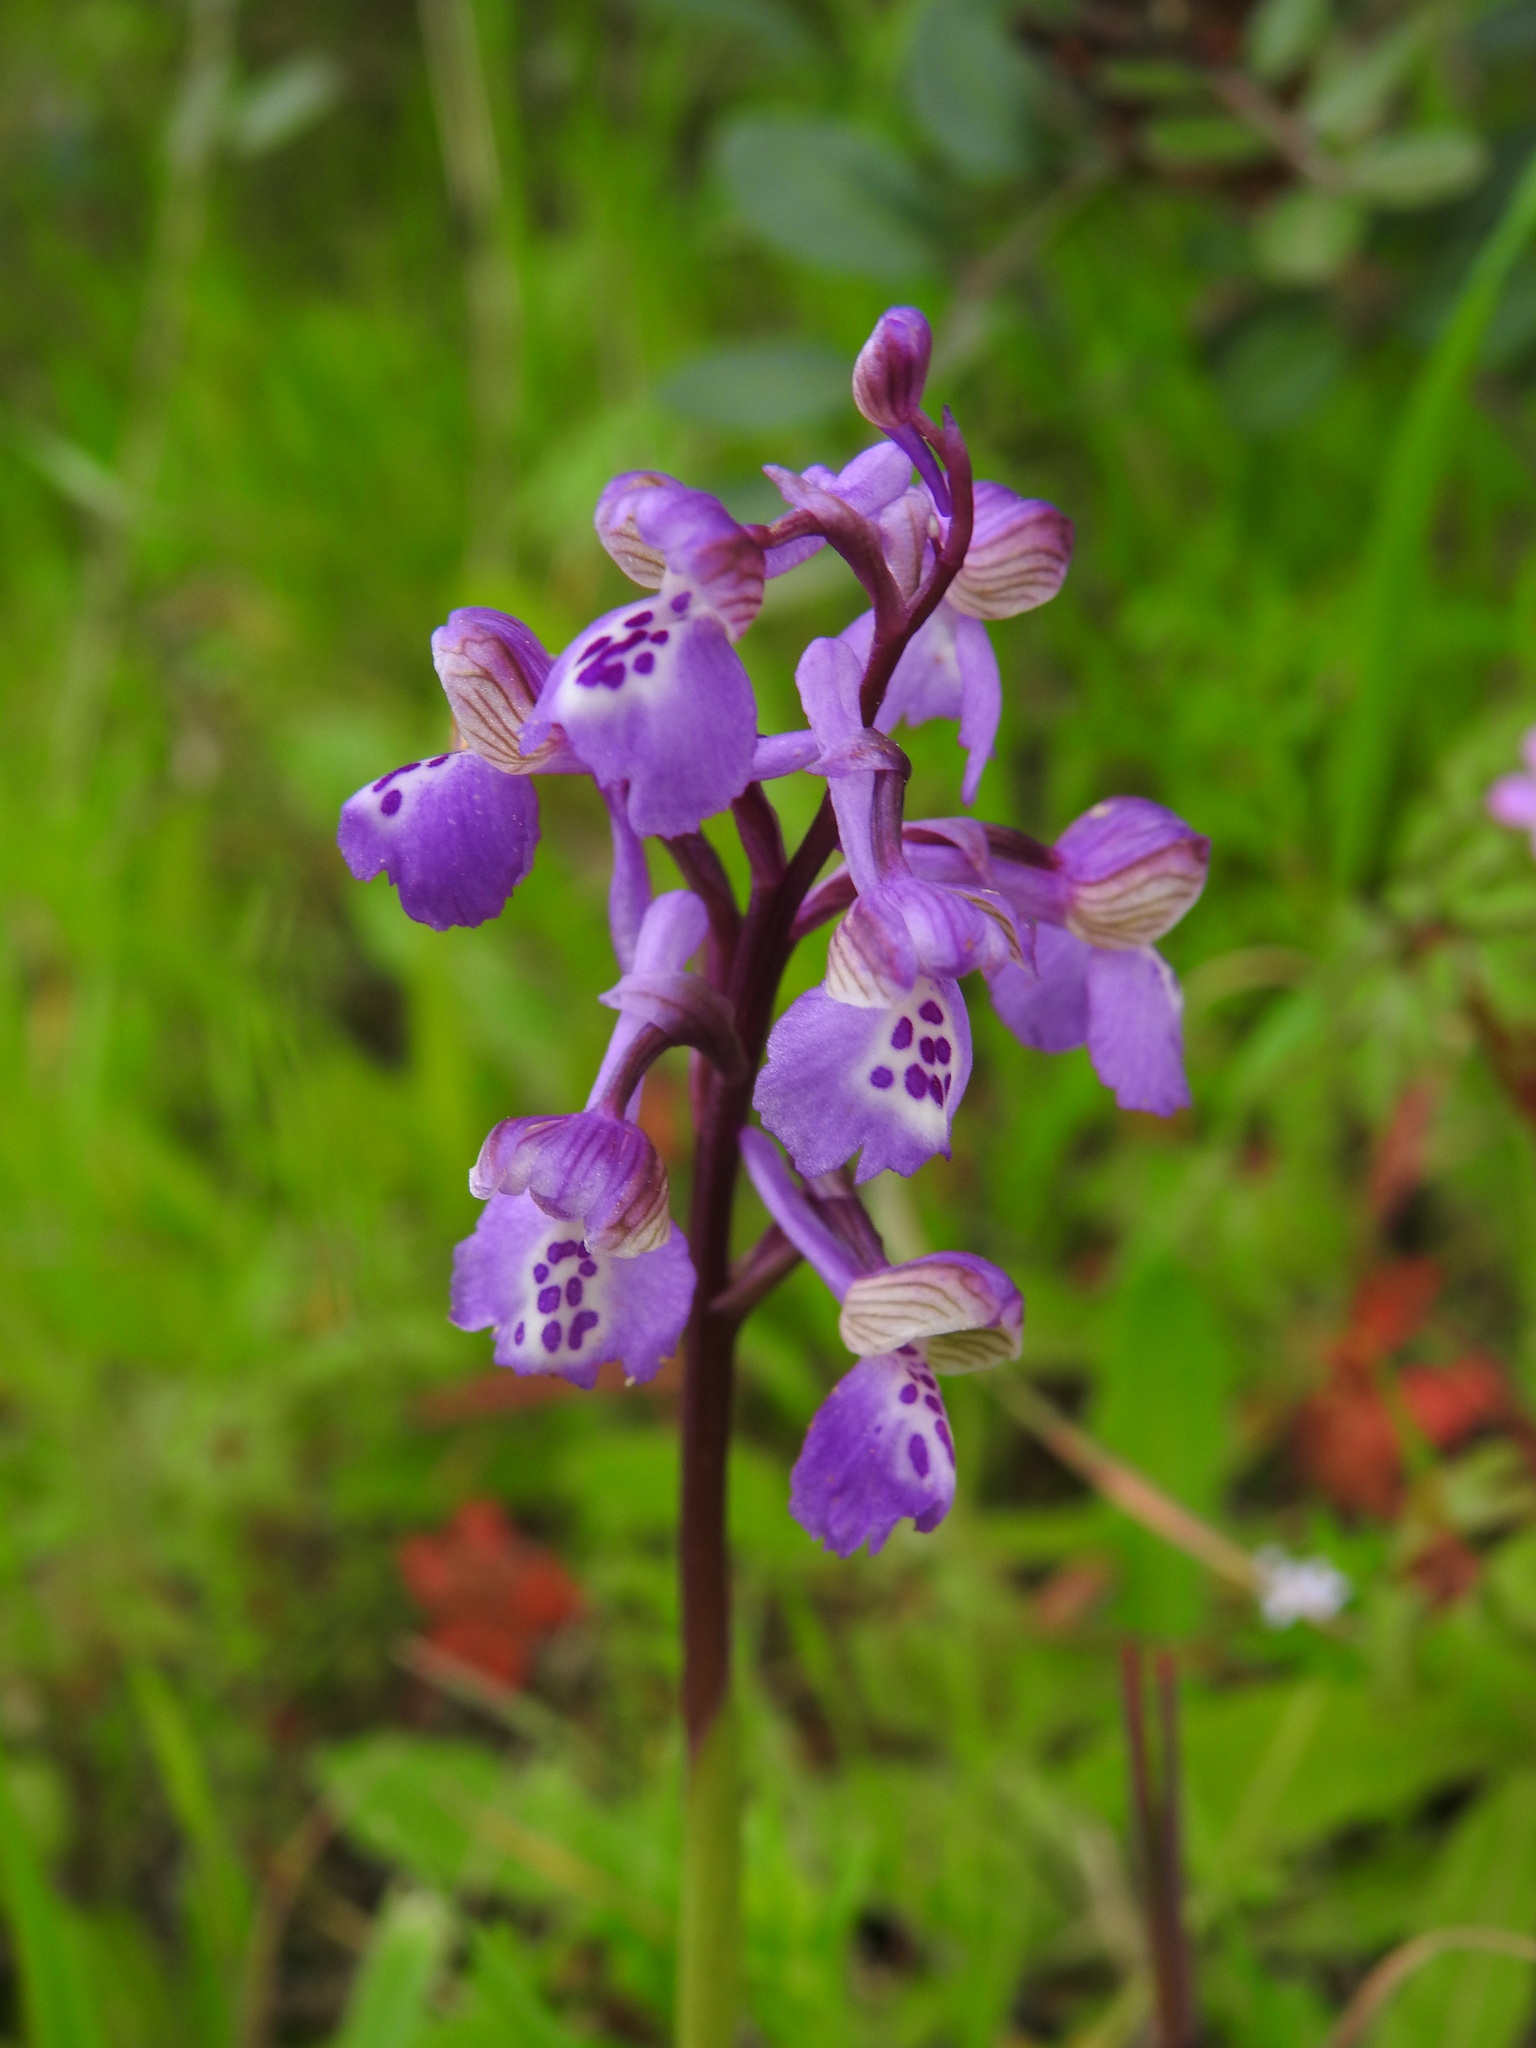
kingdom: Plantae
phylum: Tracheophyta
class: Liliopsida
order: Asparagales
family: Orchidaceae
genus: Anacamptis
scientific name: Anacamptis morio
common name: Green-winged orchid
